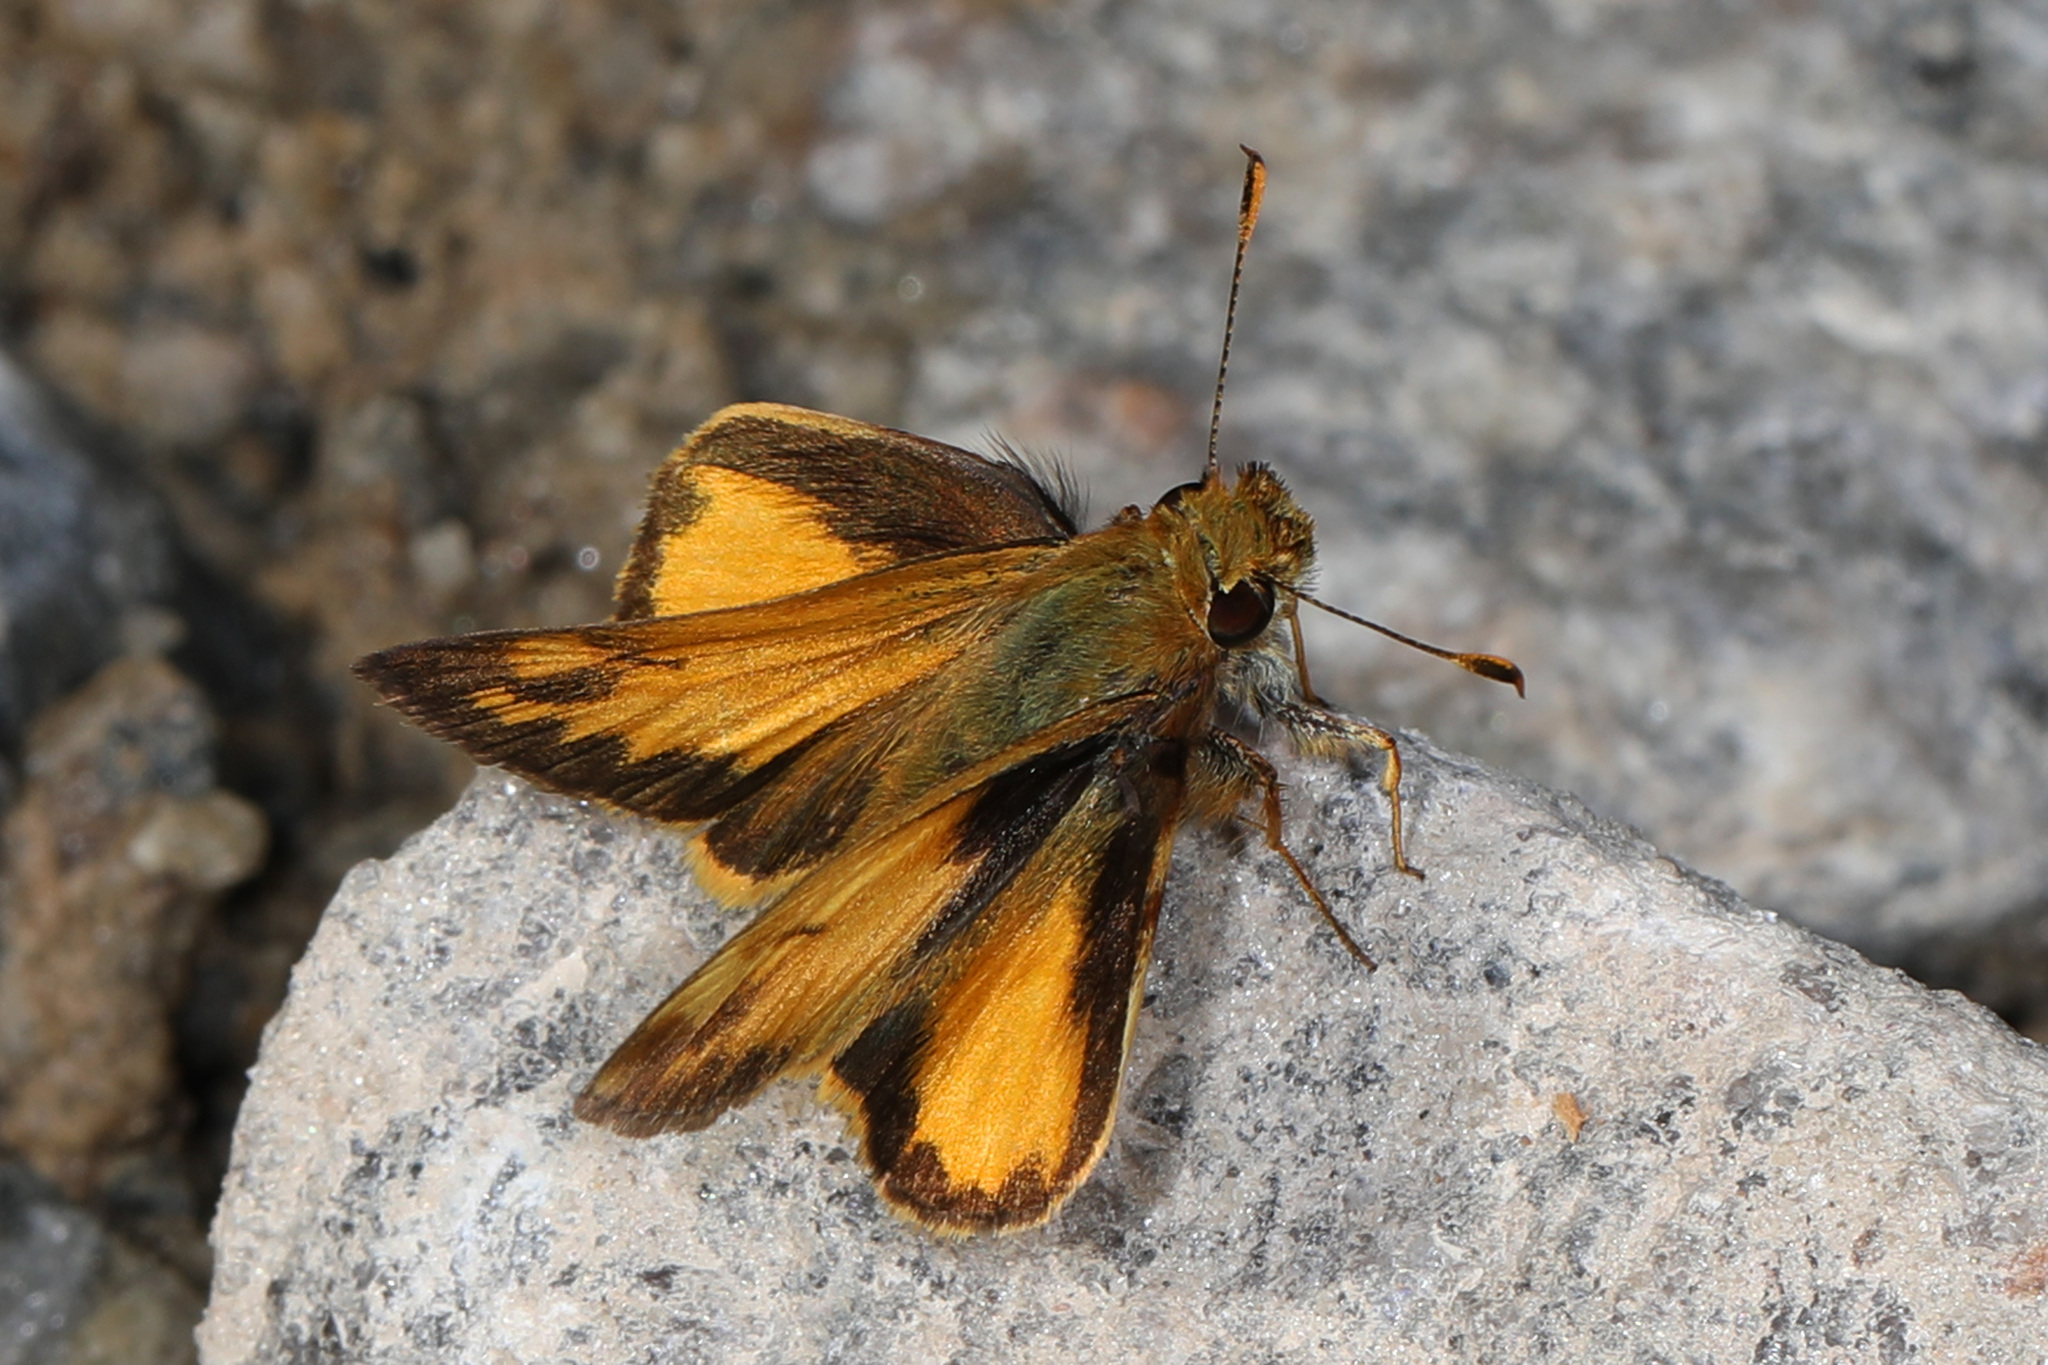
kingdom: Animalia
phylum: Arthropoda
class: Insecta
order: Lepidoptera
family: Hesperiidae
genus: Lon
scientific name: Lon zabulon
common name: Zabulon skipper
